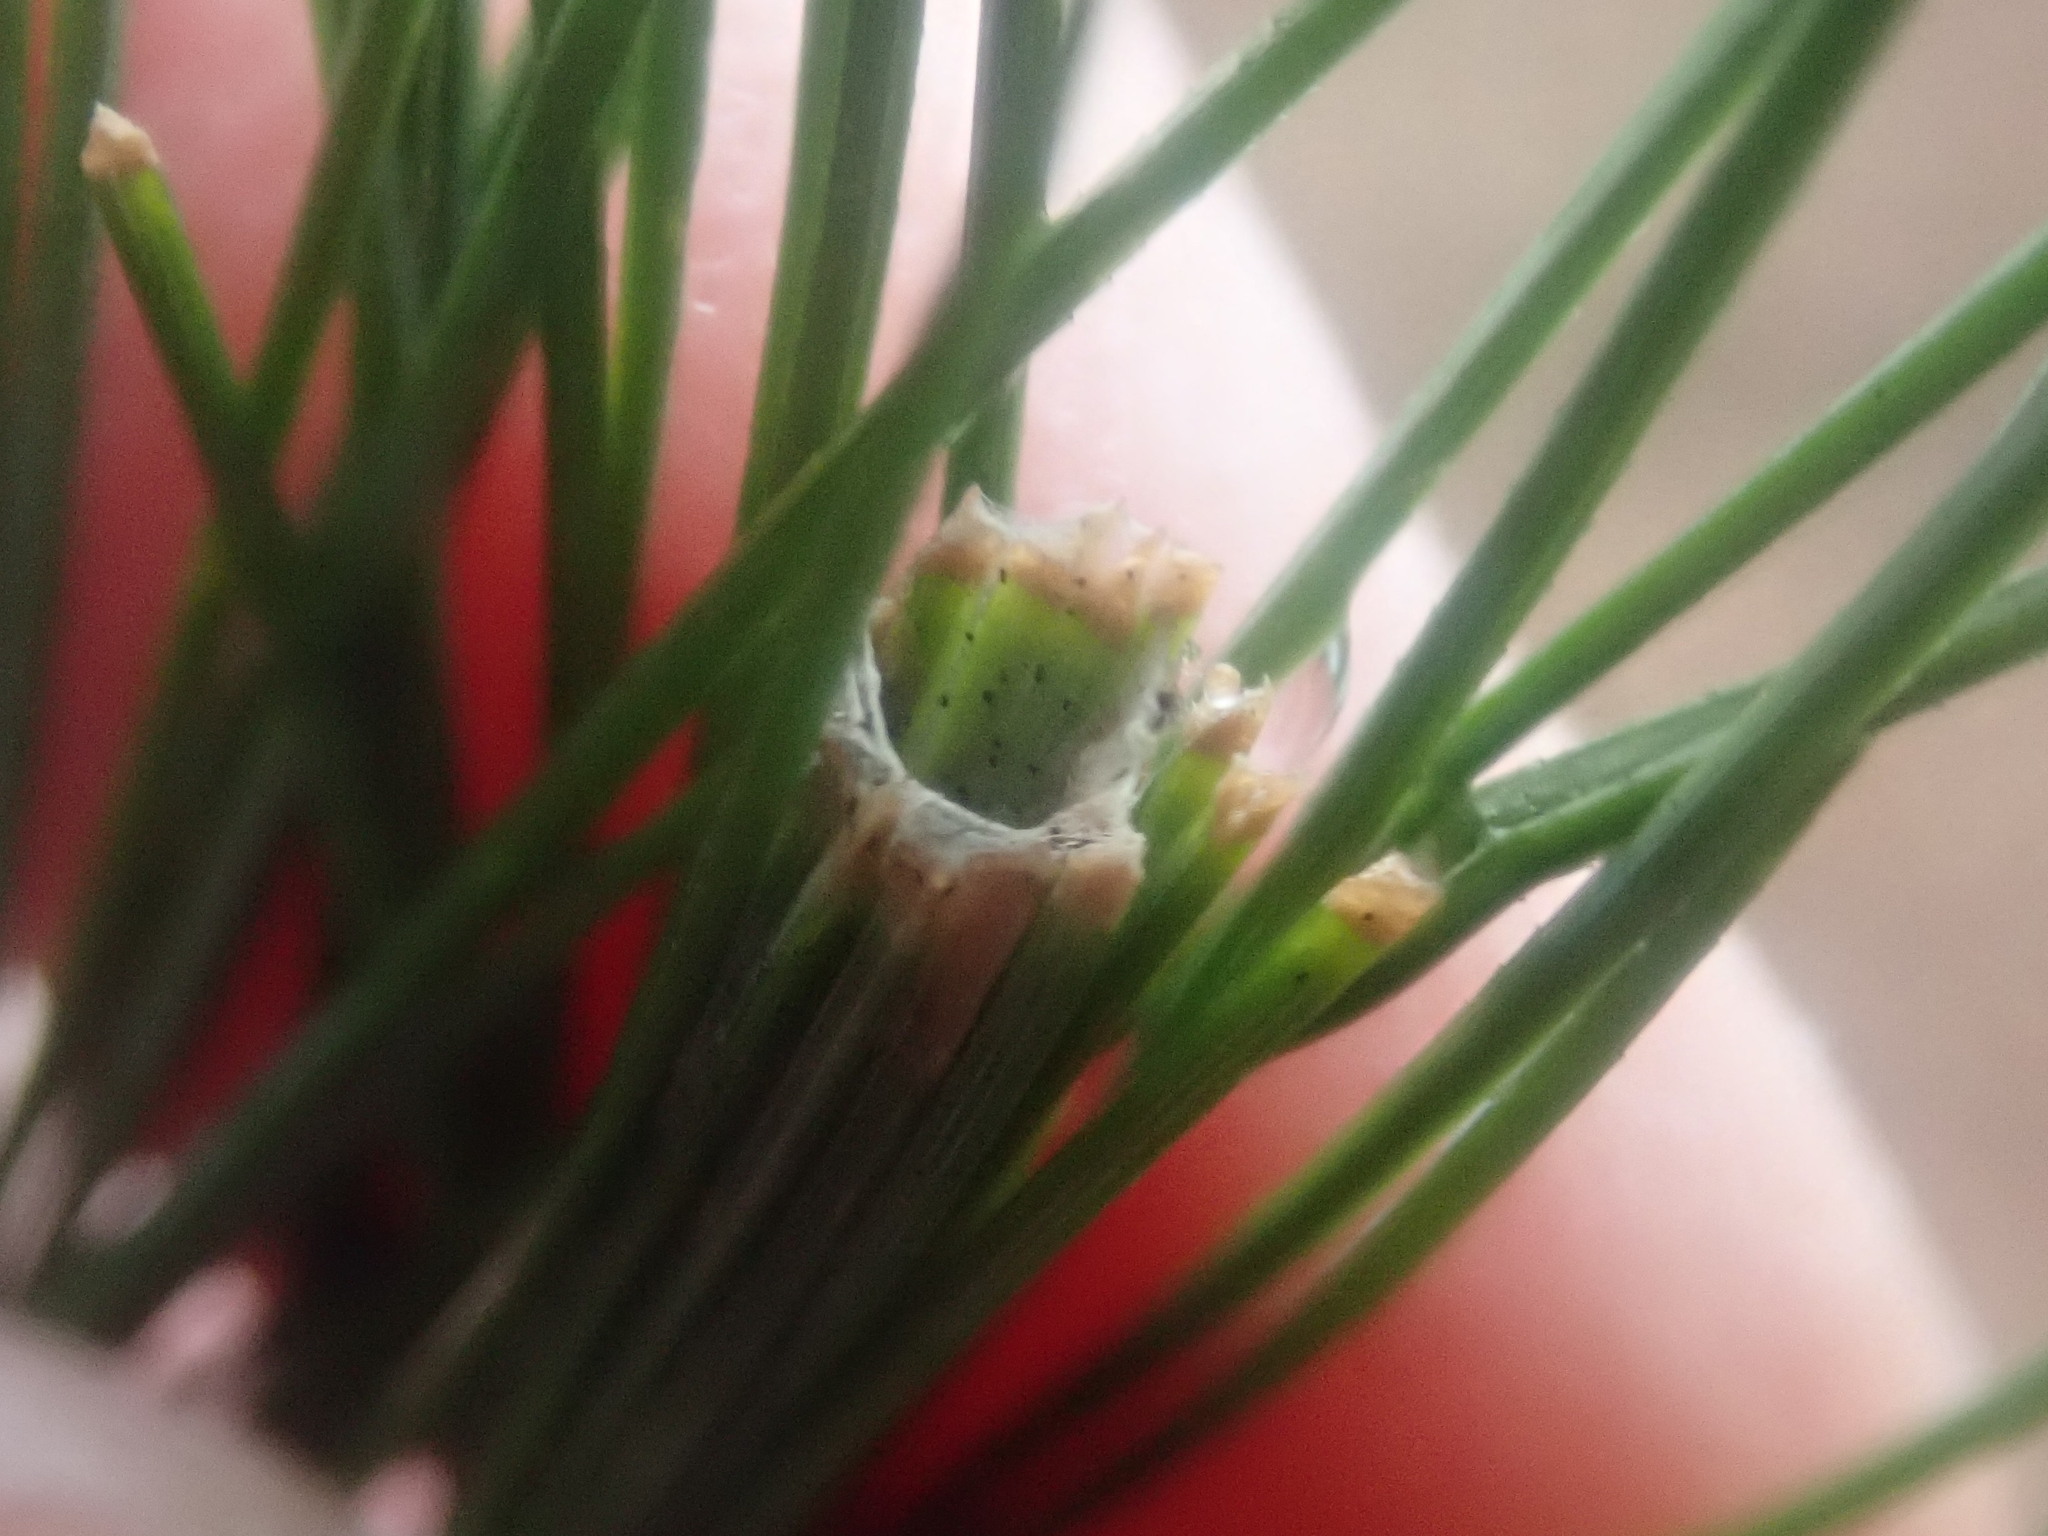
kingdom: Animalia
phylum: Arthropoda
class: Insecta
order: Lepidoptera
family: Tortricidae
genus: Argyrotaenia
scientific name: Argyrotaenia pinatubana
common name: Pine tube moth
